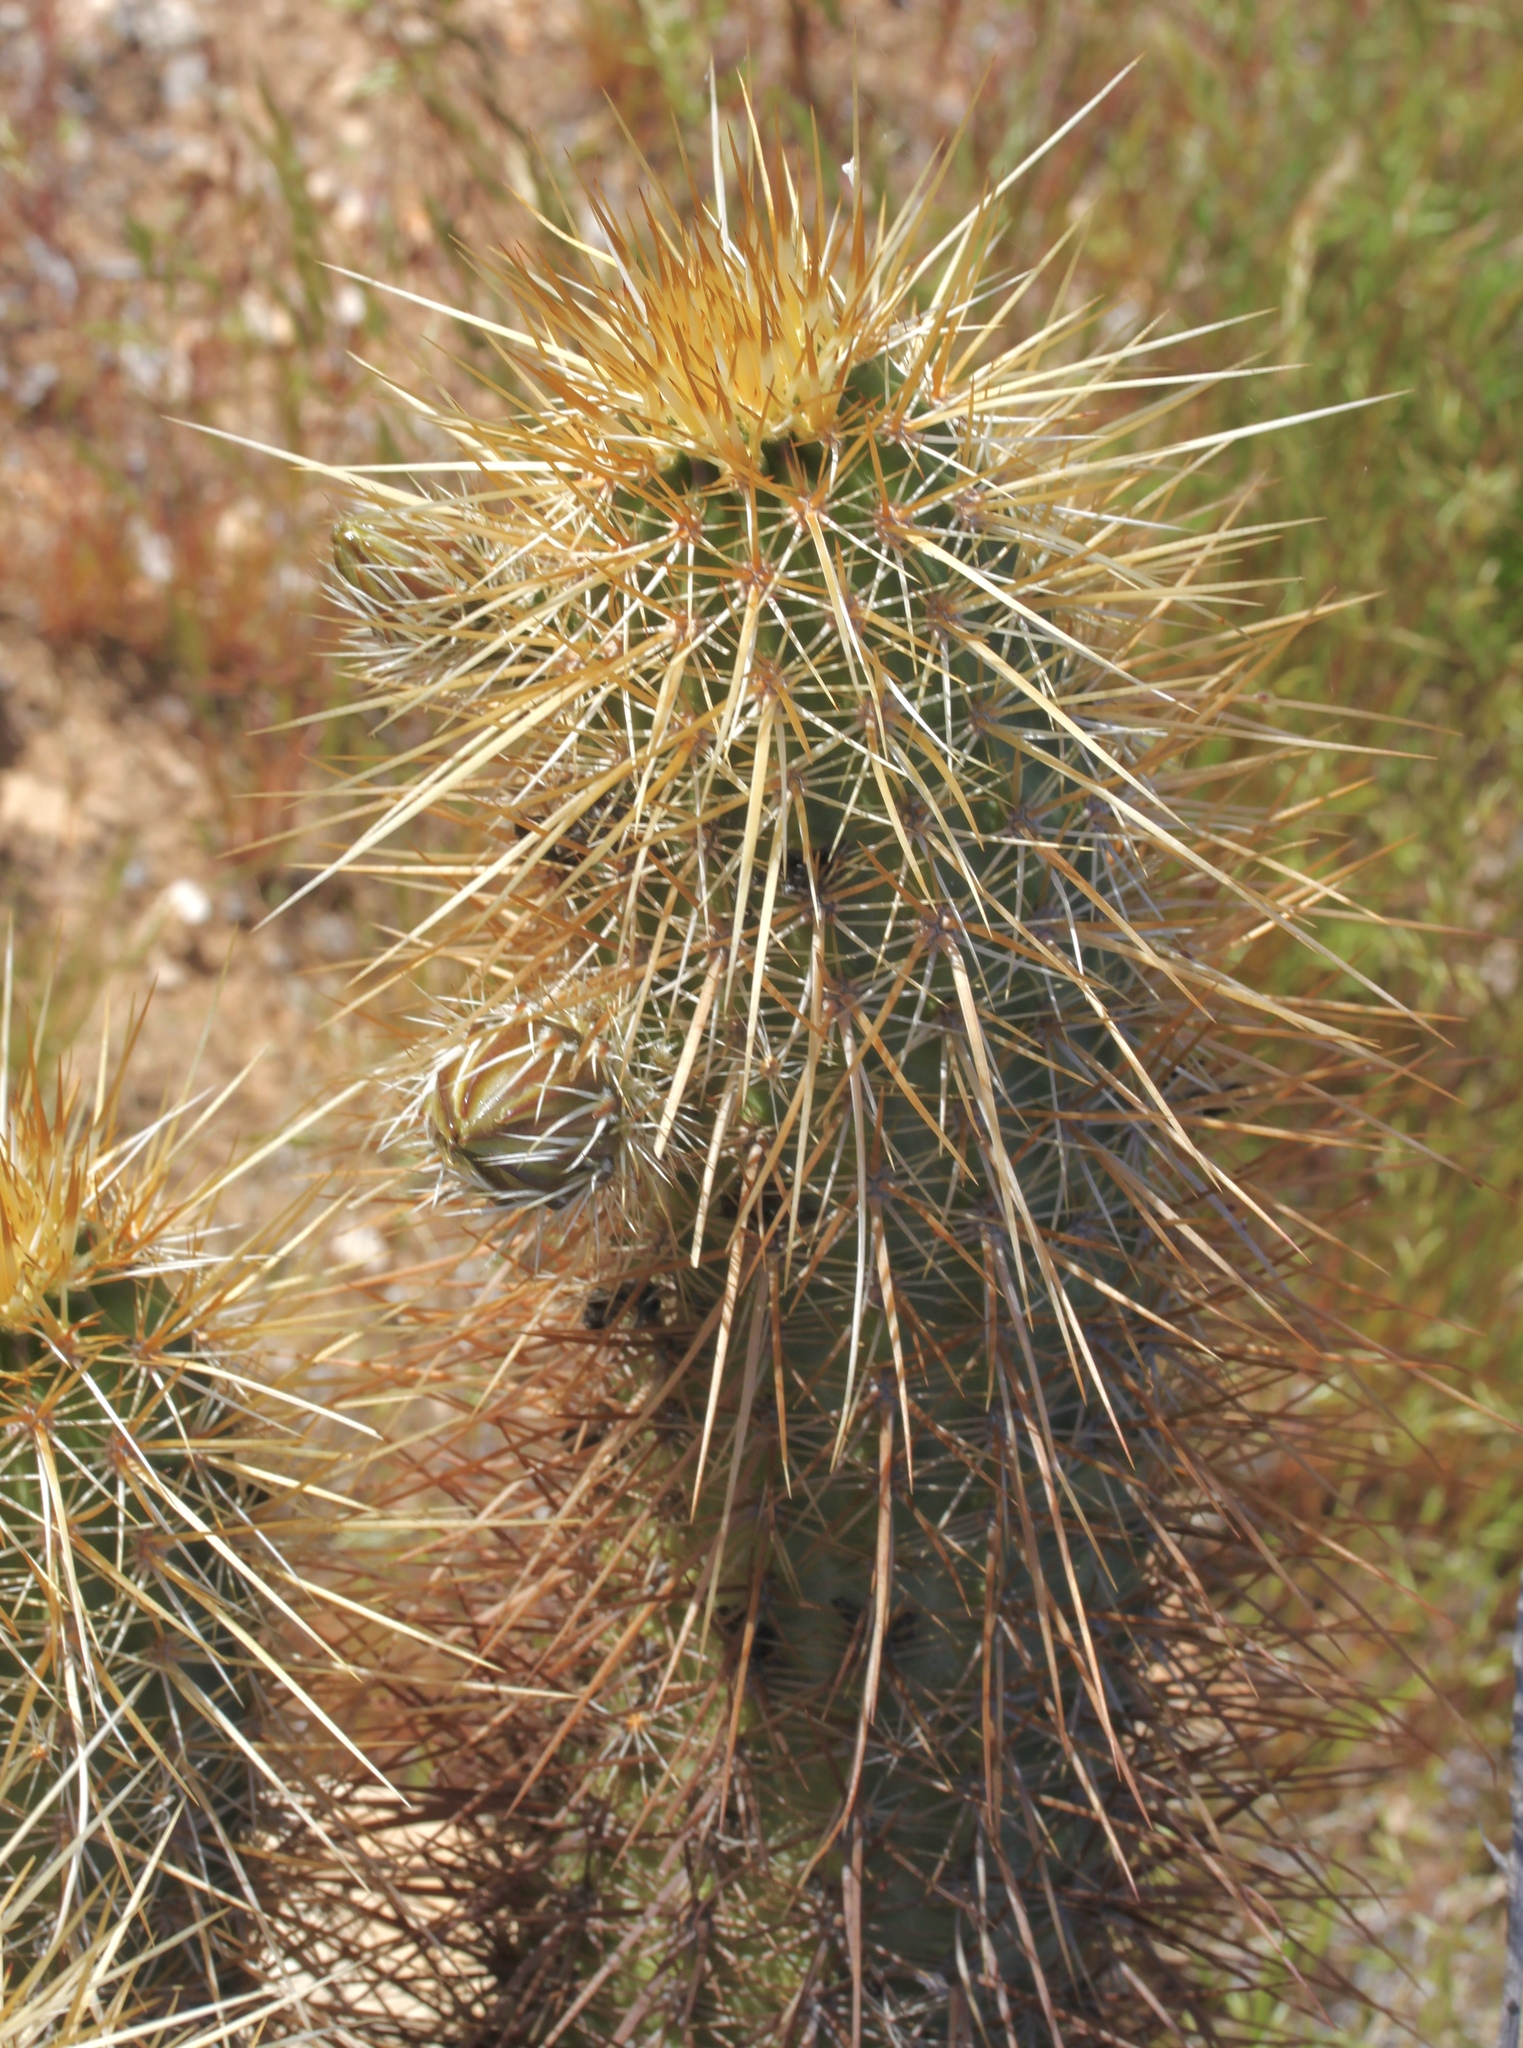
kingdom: Plantae
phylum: Tracheophyta
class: Magnoliopsida
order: Caryophyllales
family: Cactaceae
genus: Echinocereus
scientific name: Echinocereus engelmannii
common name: Engelmann's hedgehog cactus
